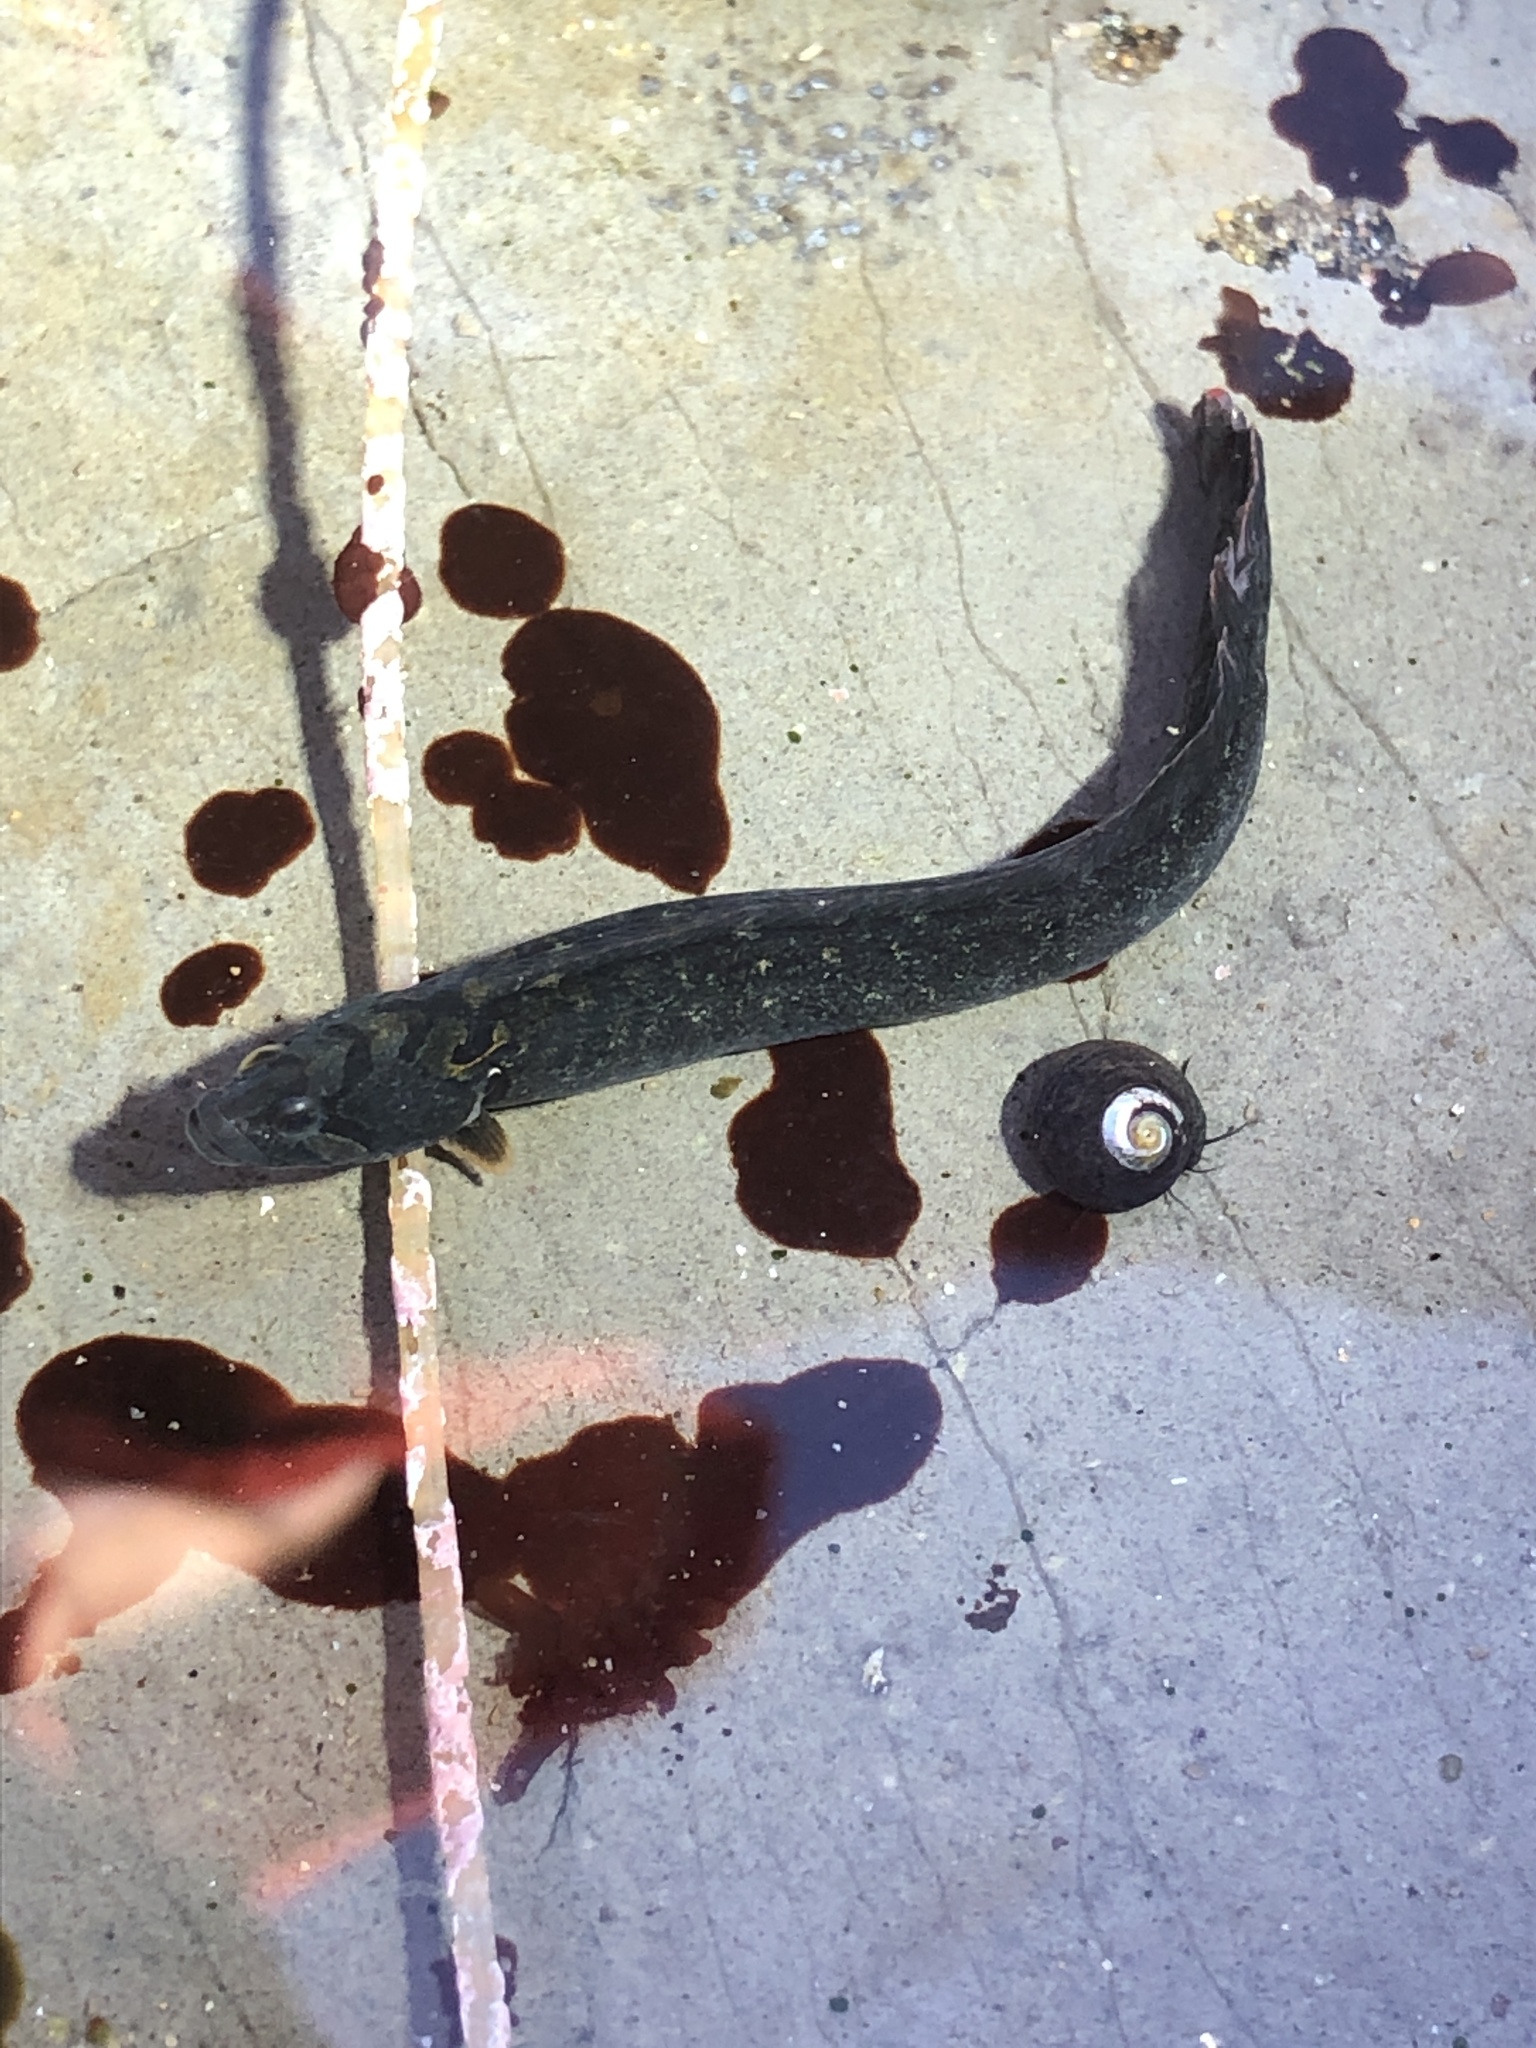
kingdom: Animalia
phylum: Chordata
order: Perciformes
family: Stichaeidae
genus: Cebidichthys
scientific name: Cebidichthys violaceus
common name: Monkeyface prickleback
